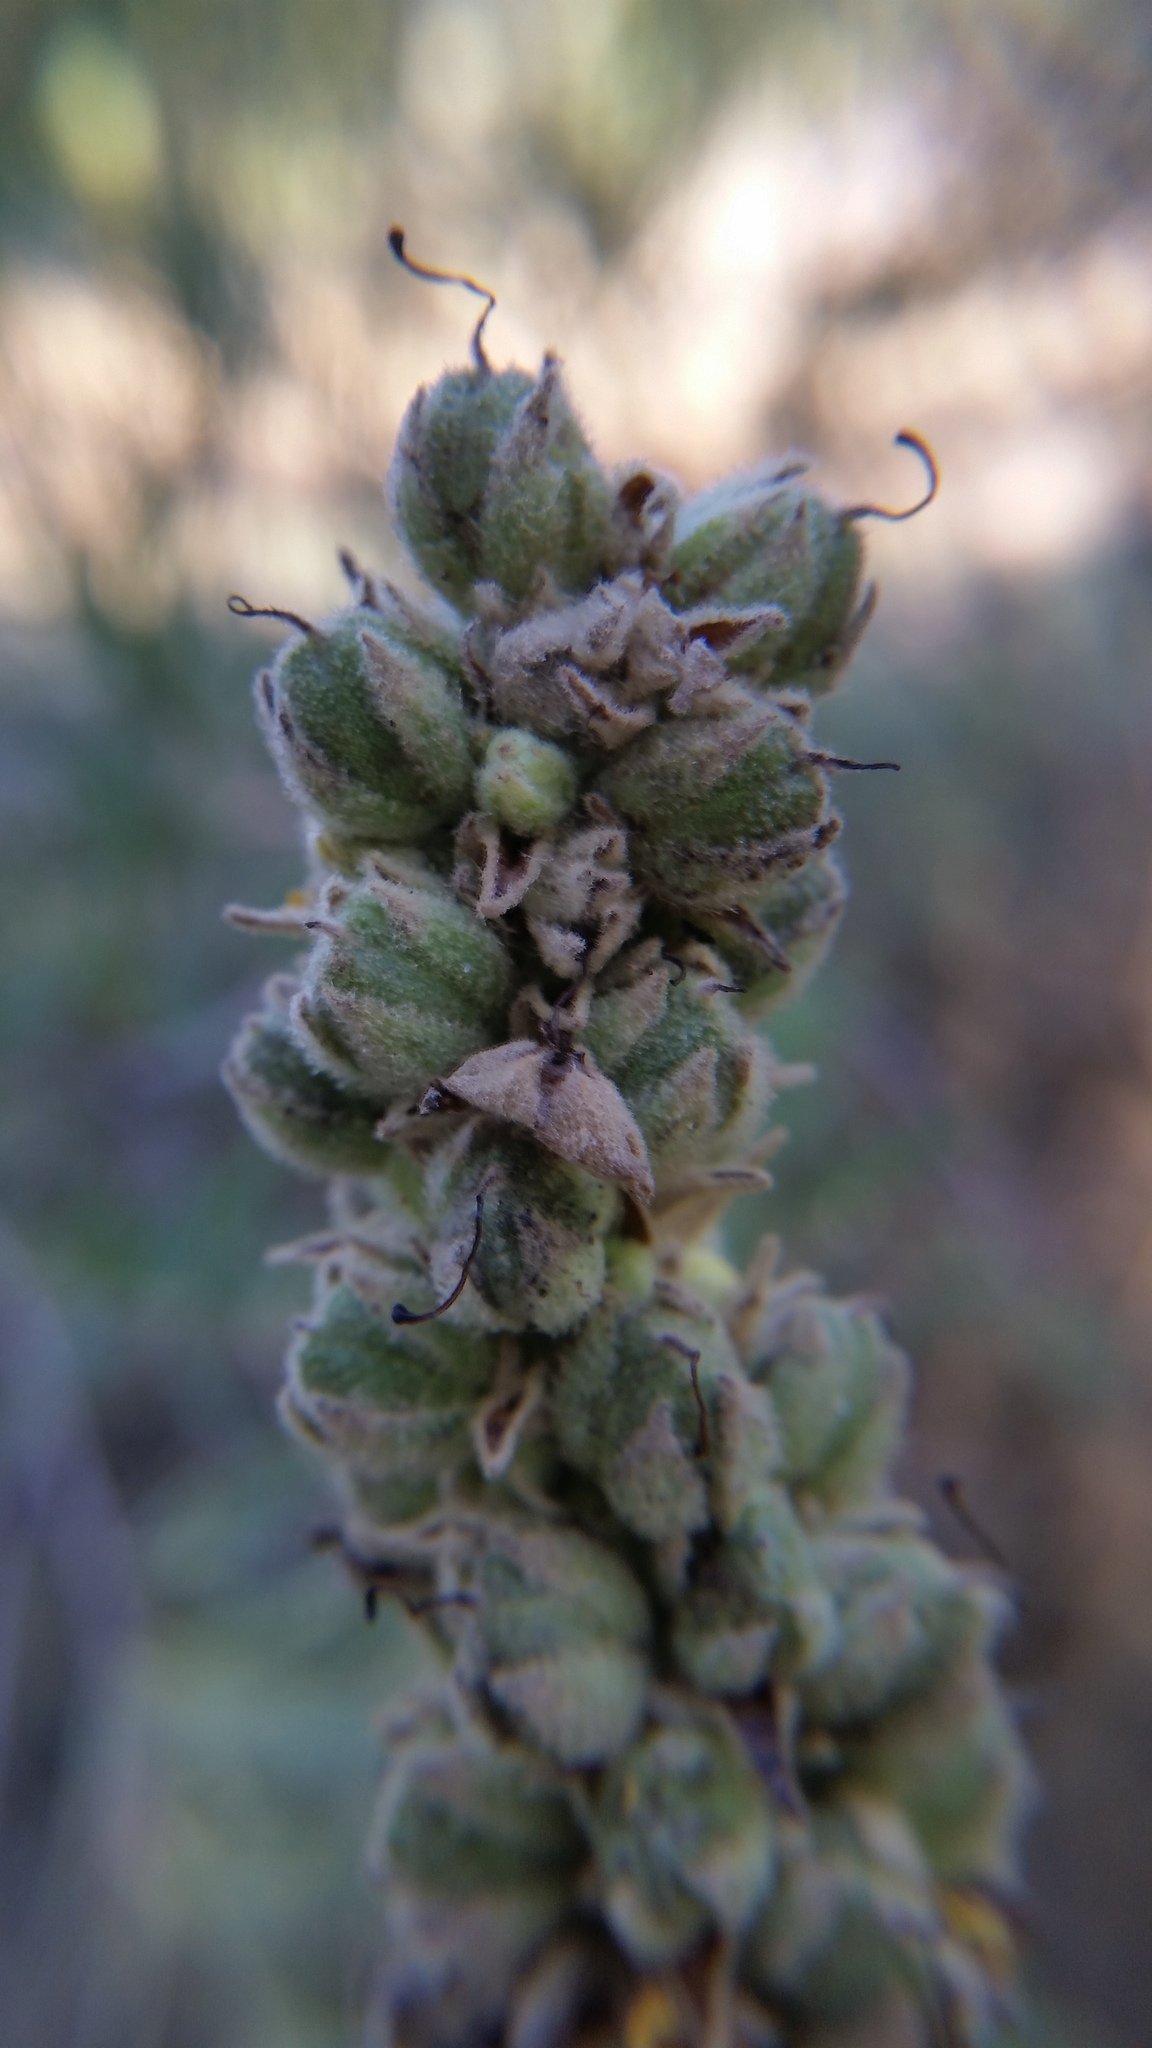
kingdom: Plantae
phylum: Tracheophyta
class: Magnoliopsida
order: Lamiales
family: Scrophulariaceae
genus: Verbascum
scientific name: Verbascum thapsus
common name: Common mullein
